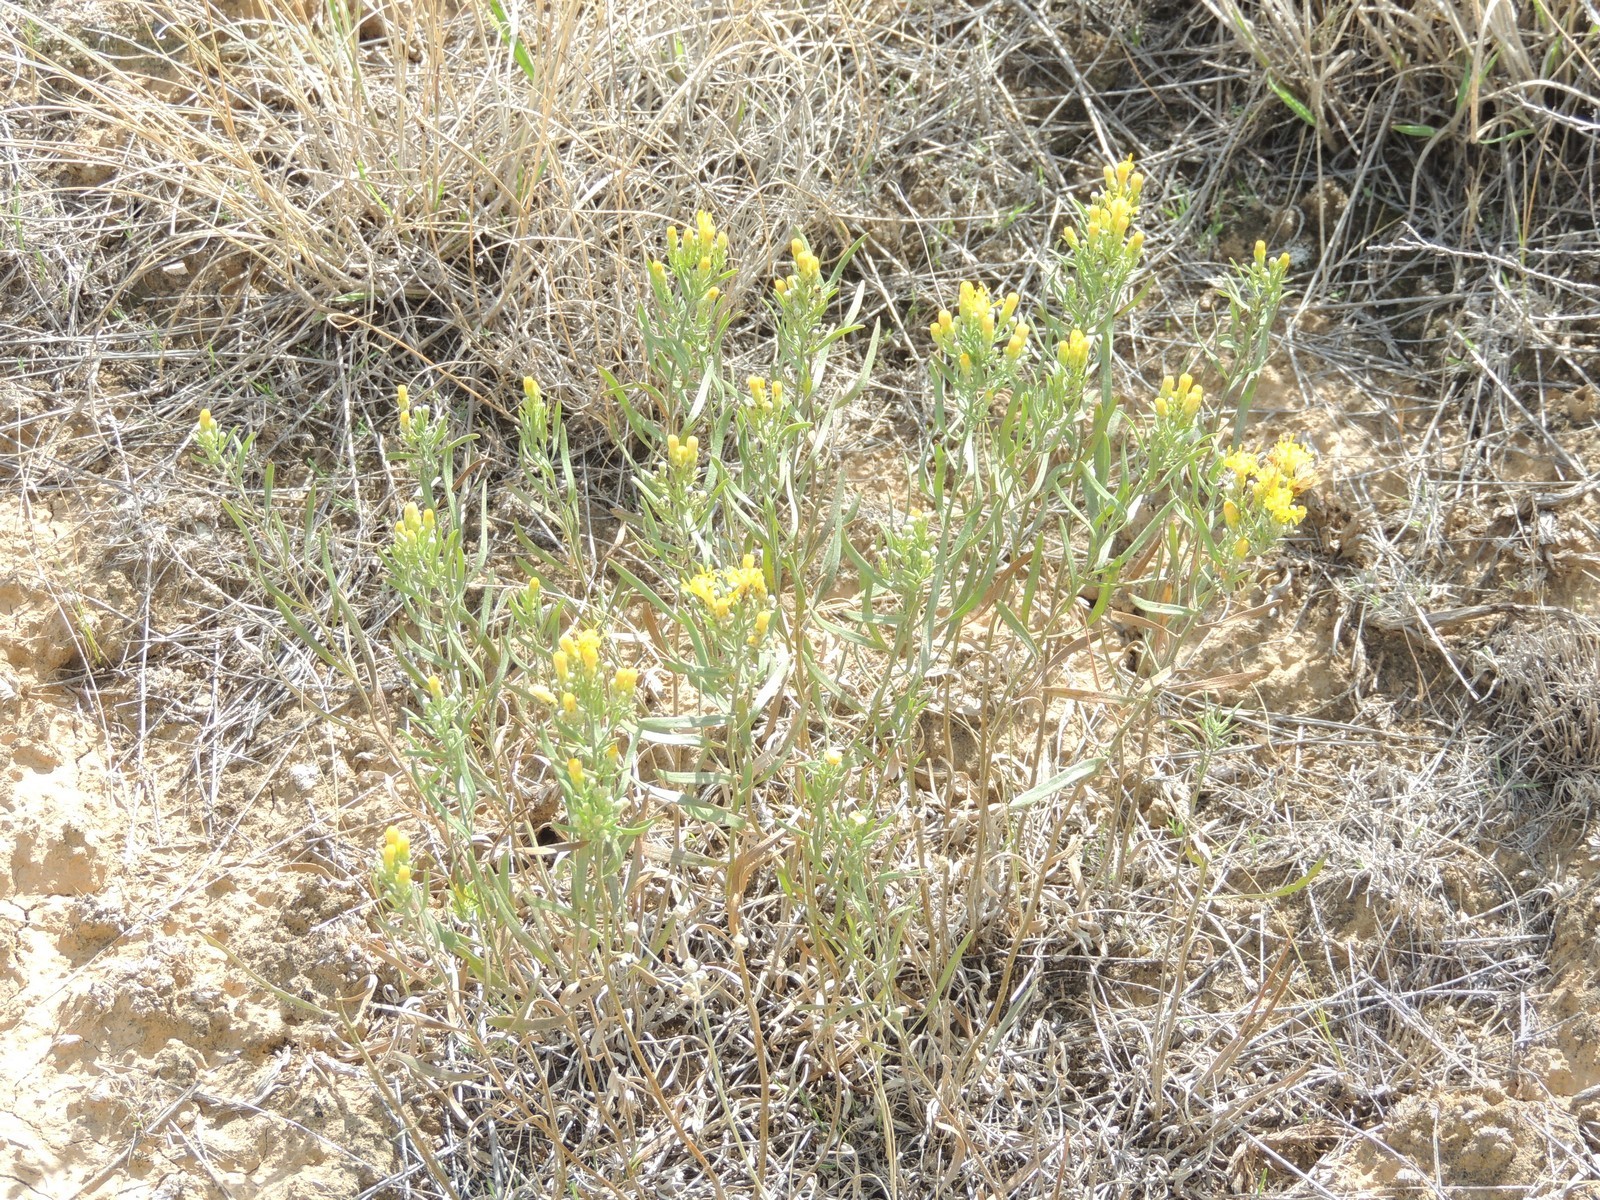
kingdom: Plantae
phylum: Tracheophyta
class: Magnoliopsida
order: Asterales
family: Asteraceae
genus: Galatella
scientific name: Galatella sedifolia
